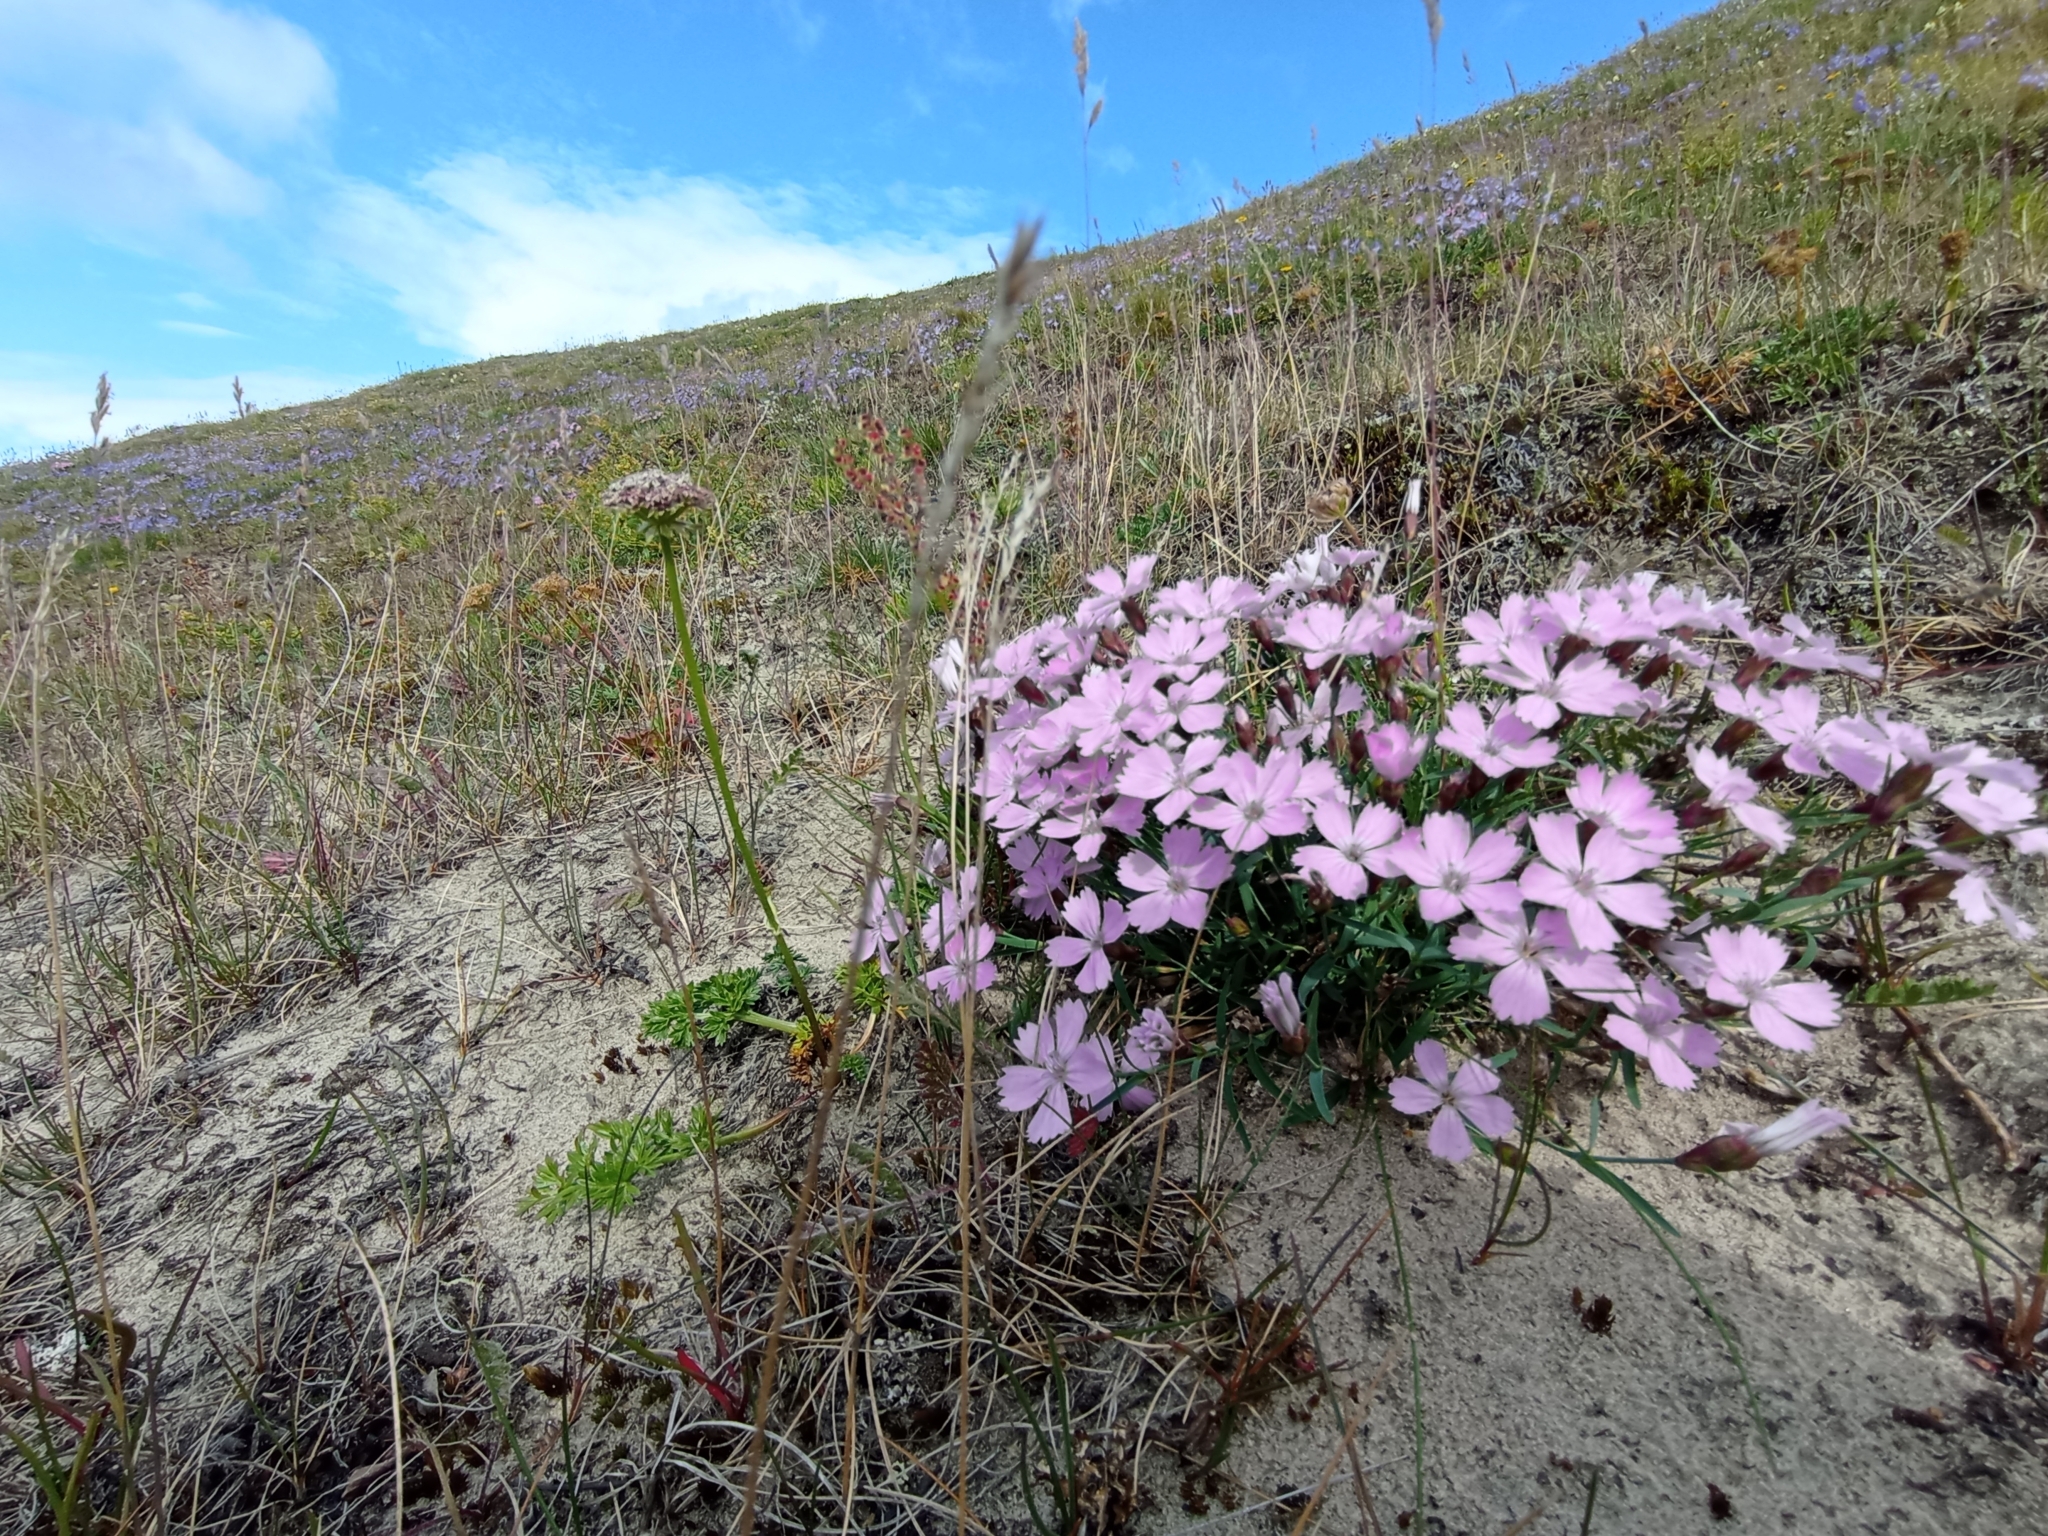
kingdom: Plantae
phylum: Tracheophyta
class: Magnoliopsida
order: Lamiales
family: Lamiaceae
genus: Thymus
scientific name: Thymus reverdattoanus
